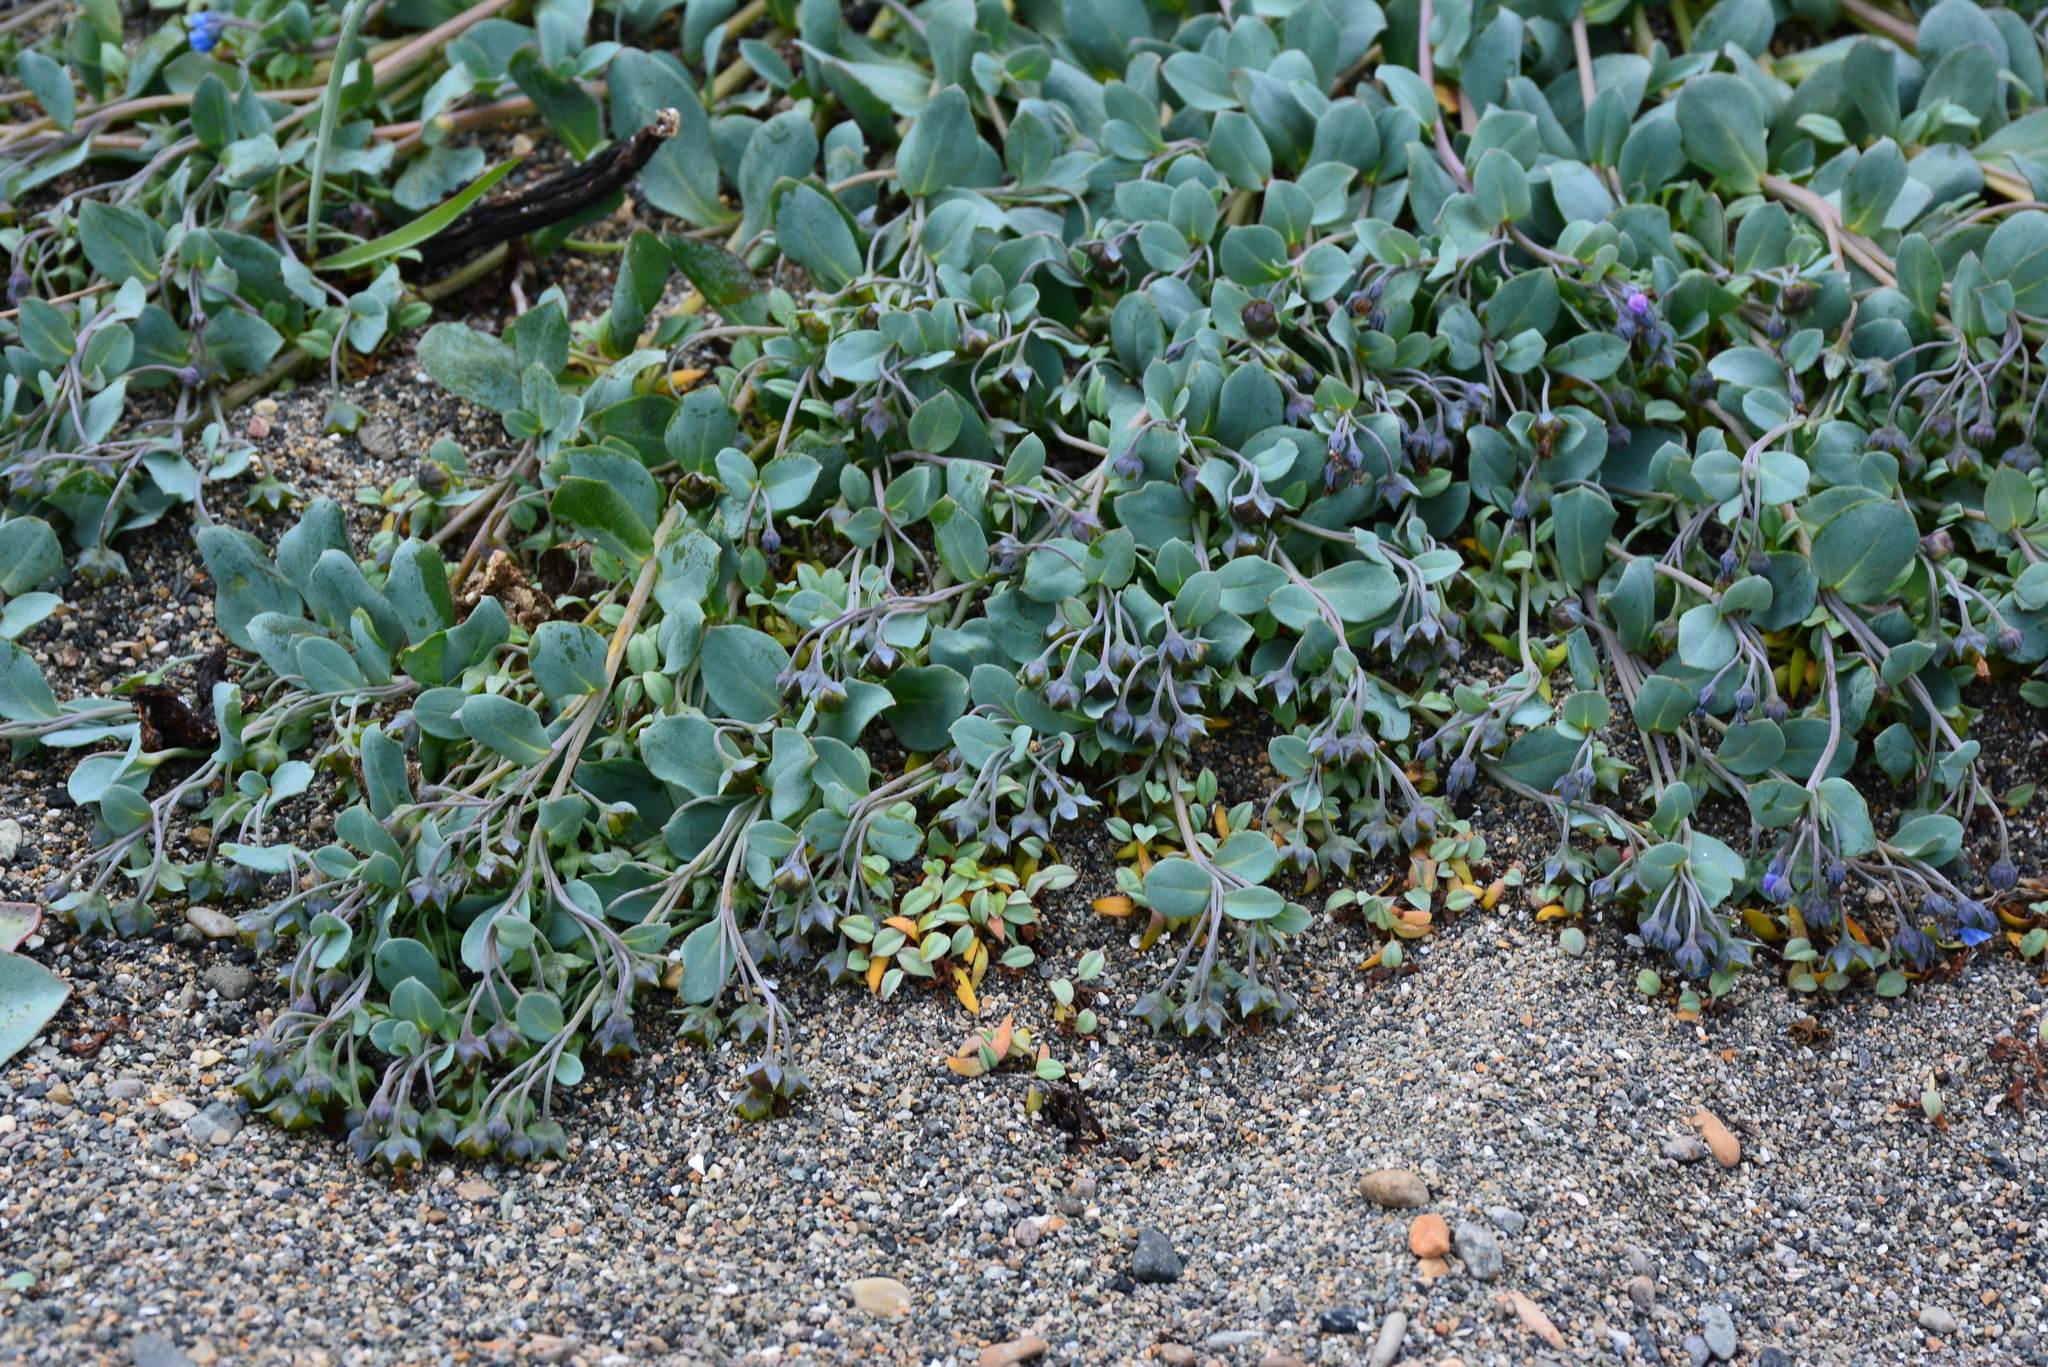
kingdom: Plantae
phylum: Tracheophyta
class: Magnoliopsida
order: Boraginales
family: Boraginaceae
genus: Mertensia
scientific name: Mertensia maritima
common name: Oysterplant
